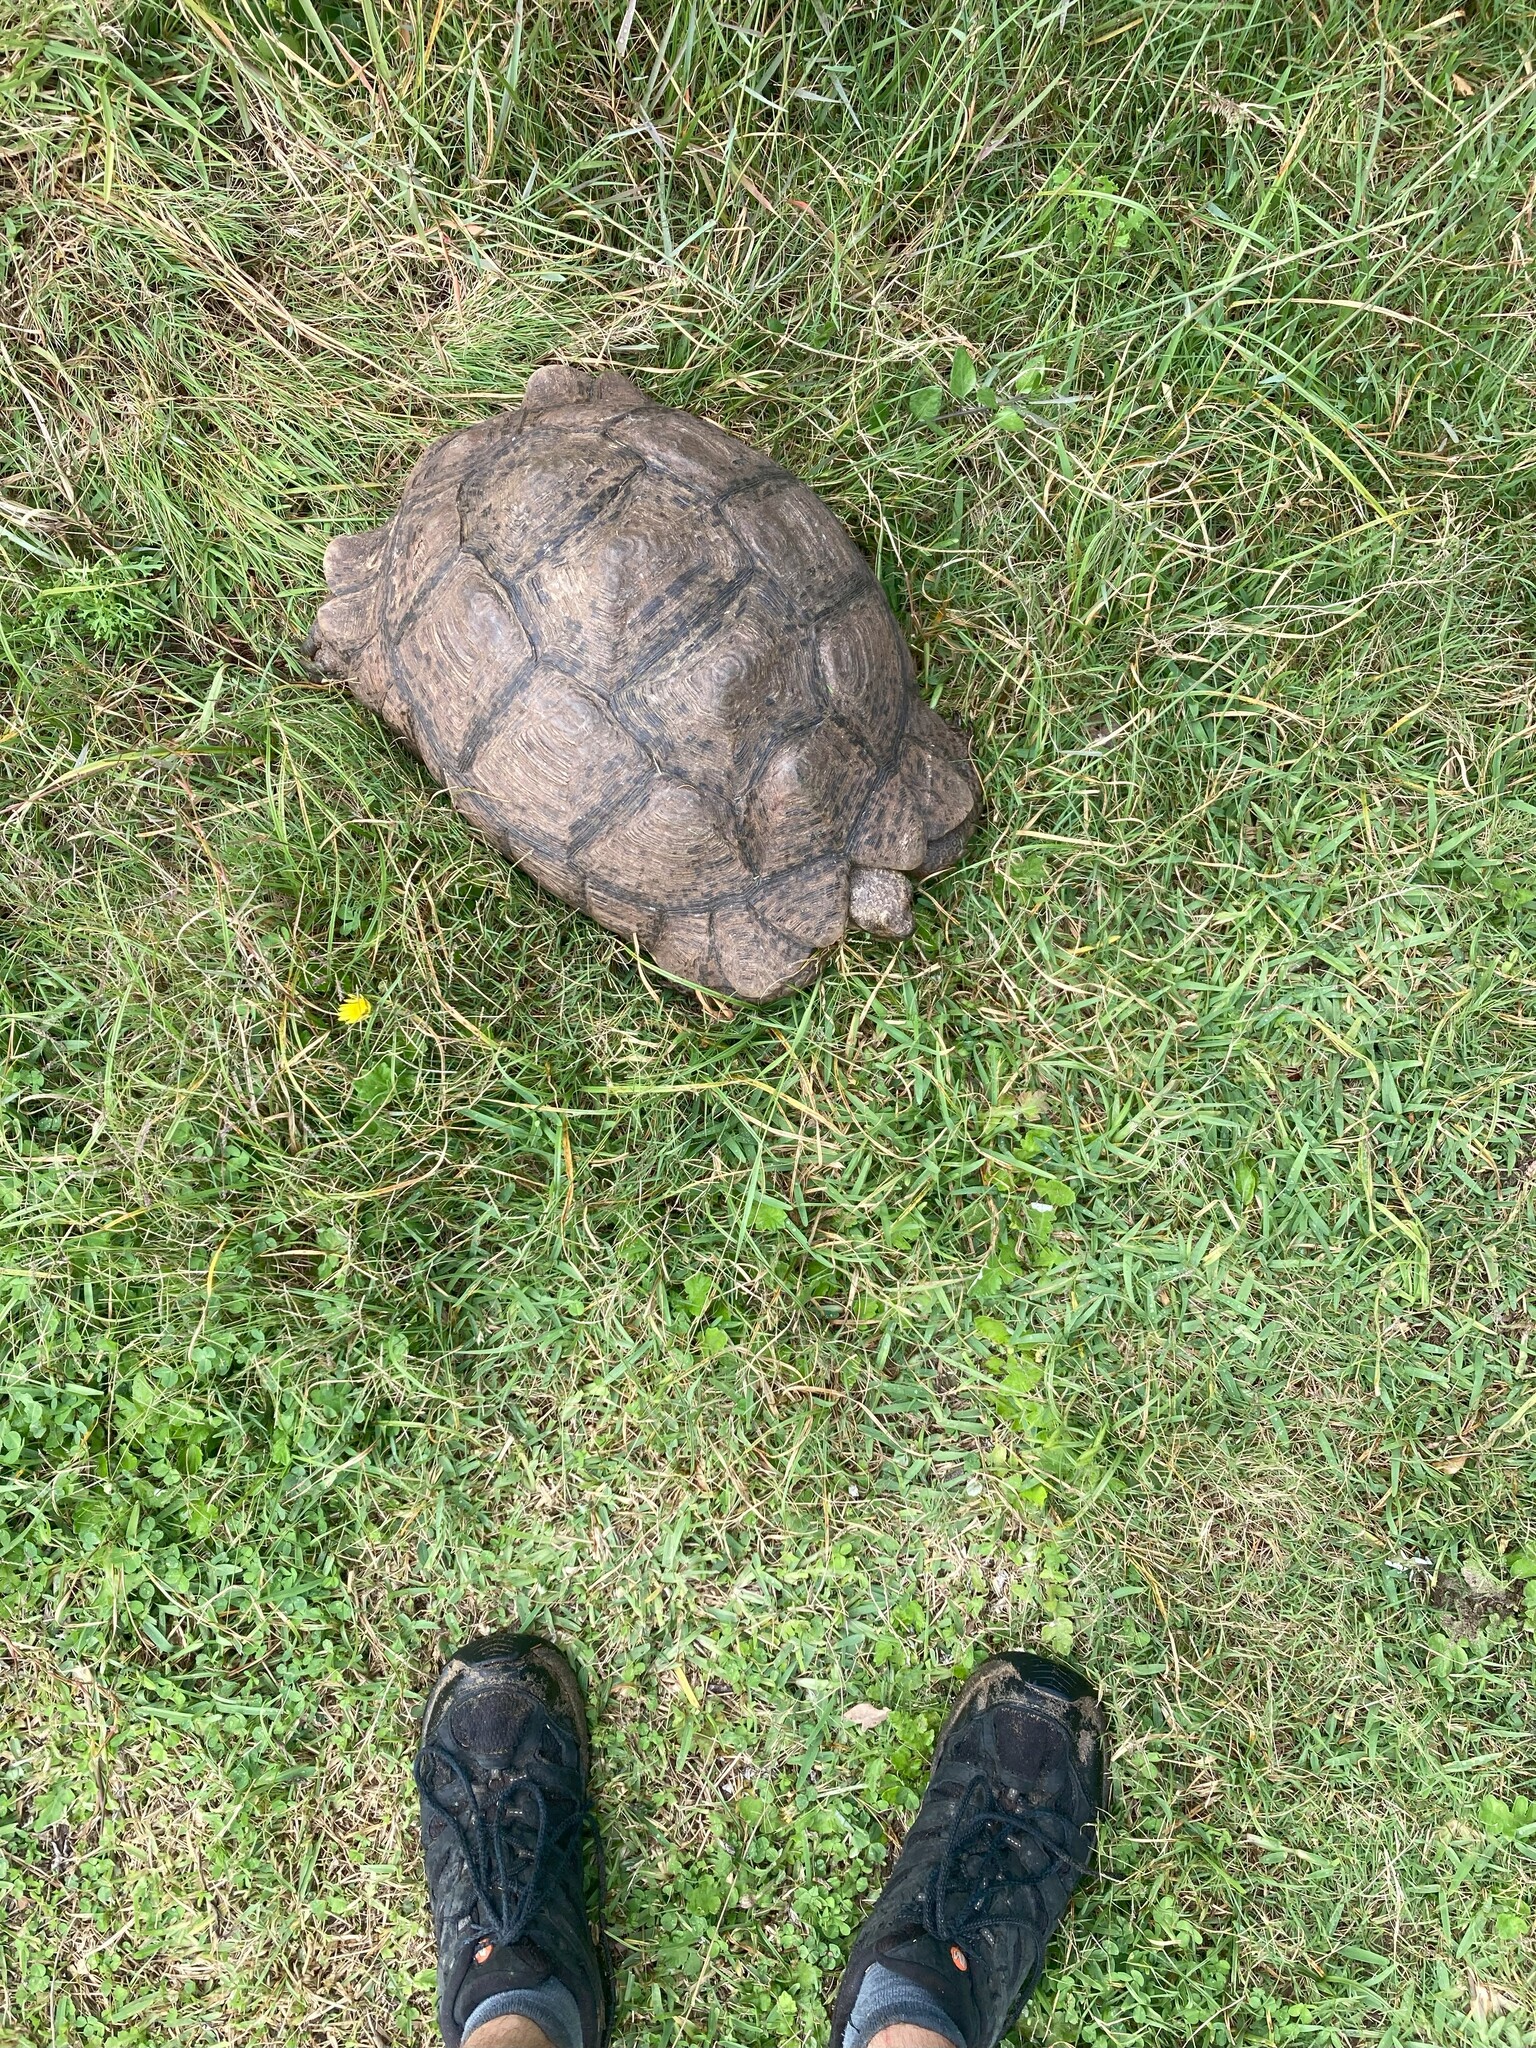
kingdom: Animalia
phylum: Chordata
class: Testudines
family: Testudinidae
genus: Stigmochelys
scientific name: Stigmochelys pardalis
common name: Leopard tortoise
